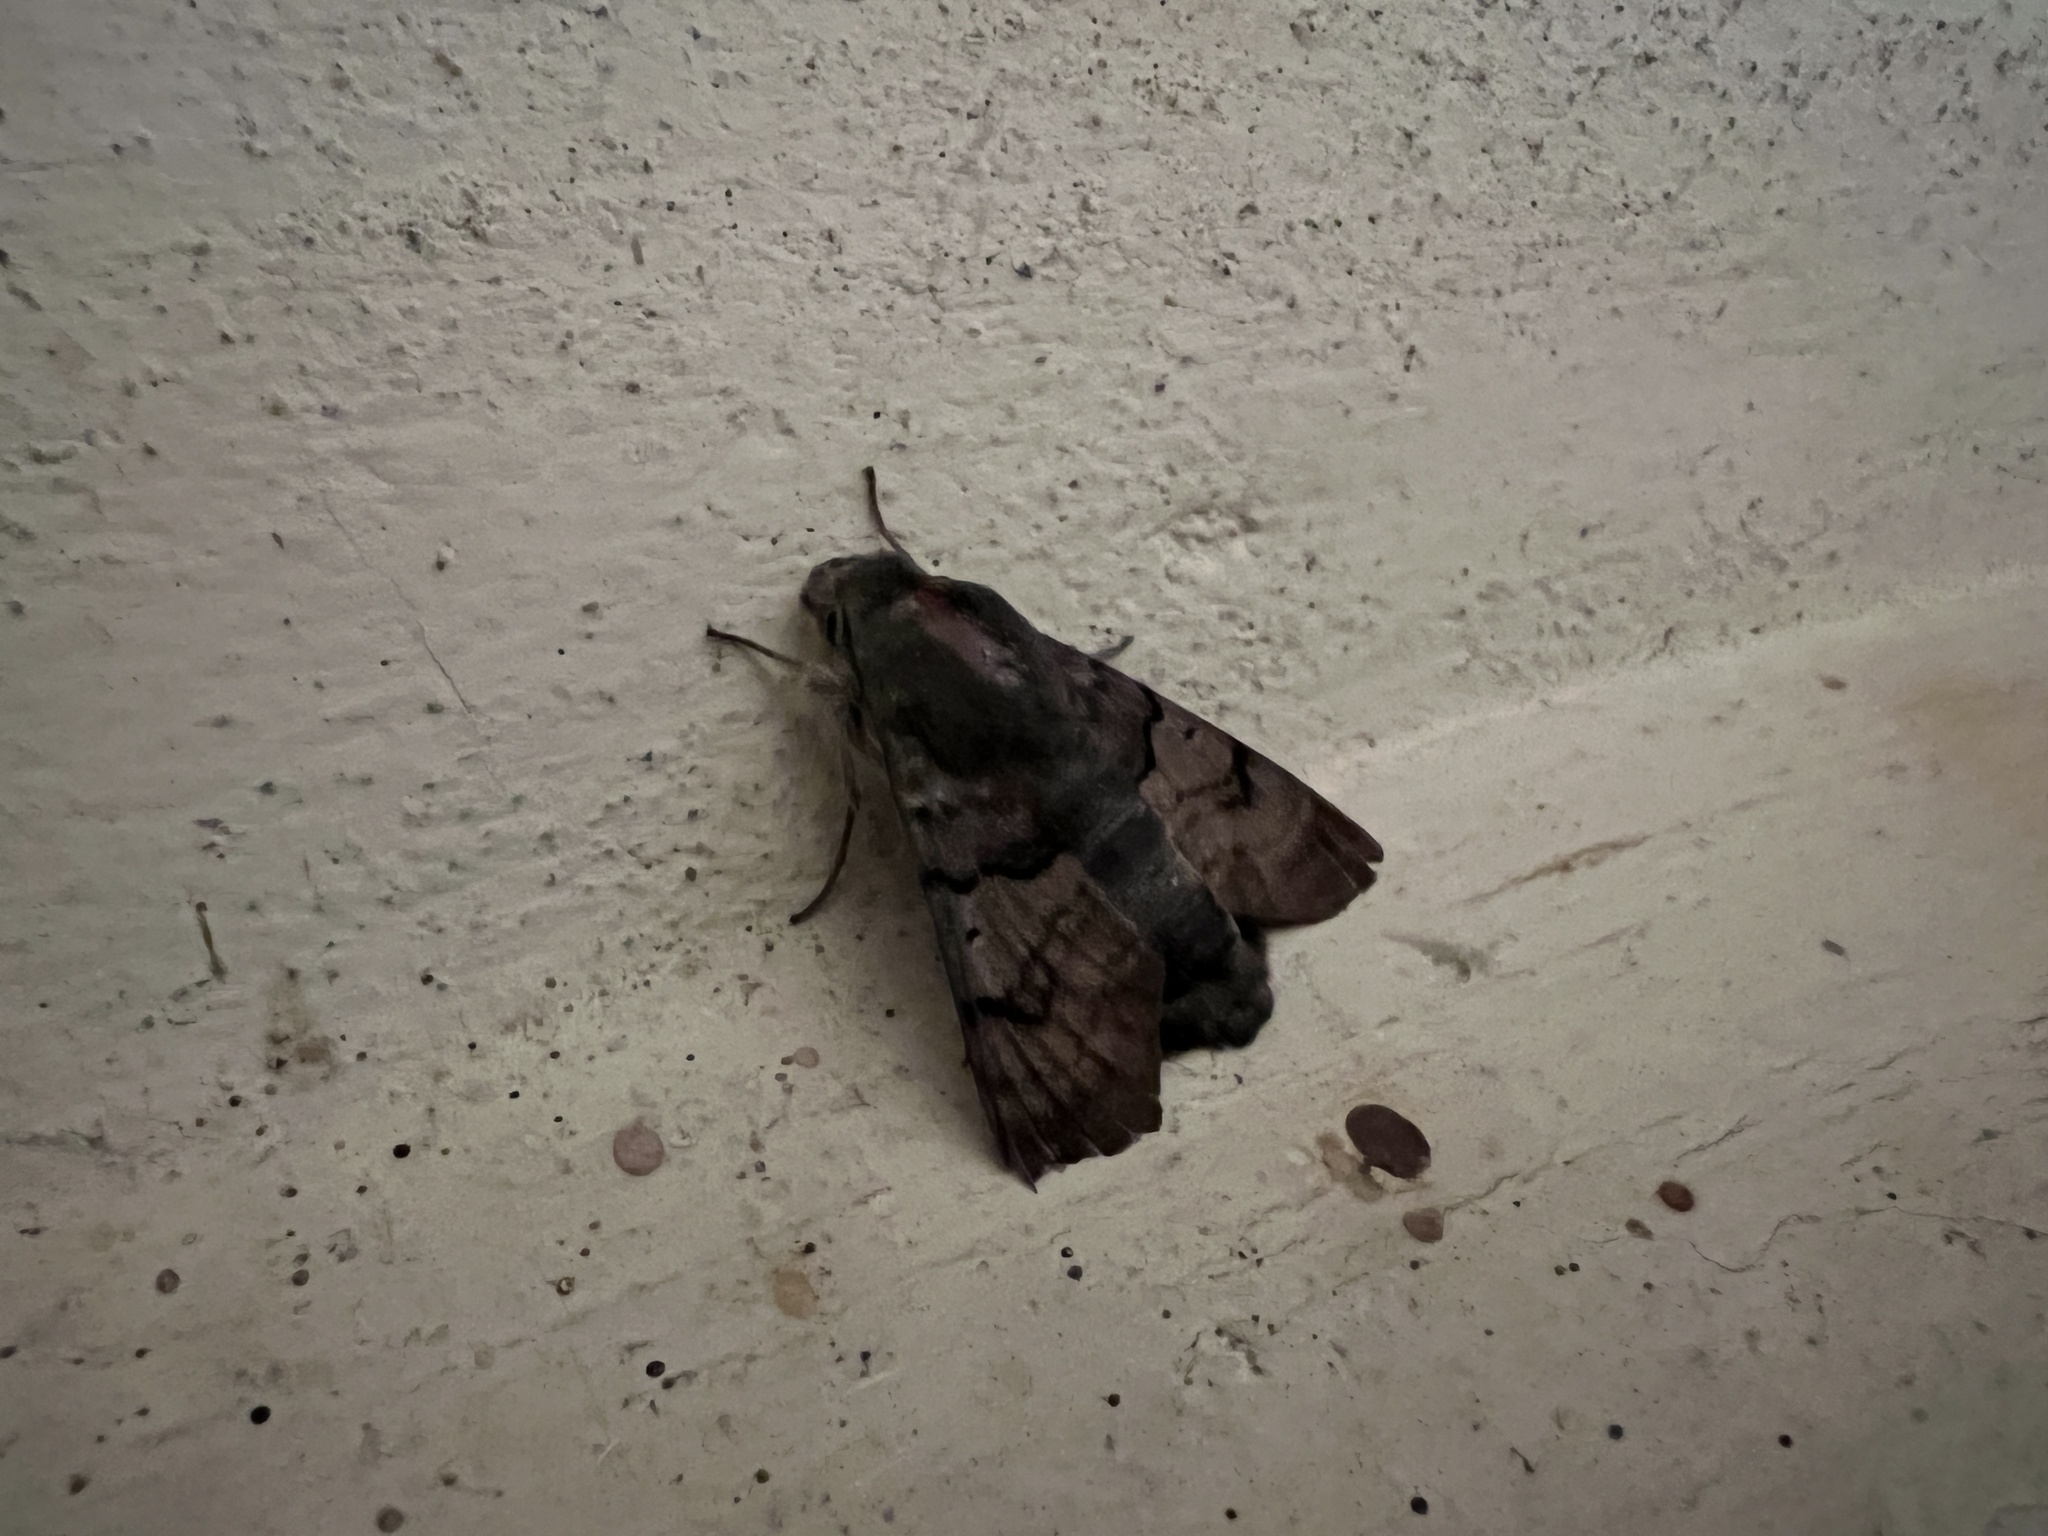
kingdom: Animalia
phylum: Arthropoda
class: Insecta
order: Lepidoptera
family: Sphingidae
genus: Macroglossum
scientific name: Macroglossum stellatarum
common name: Humming-bird hawk-moth
